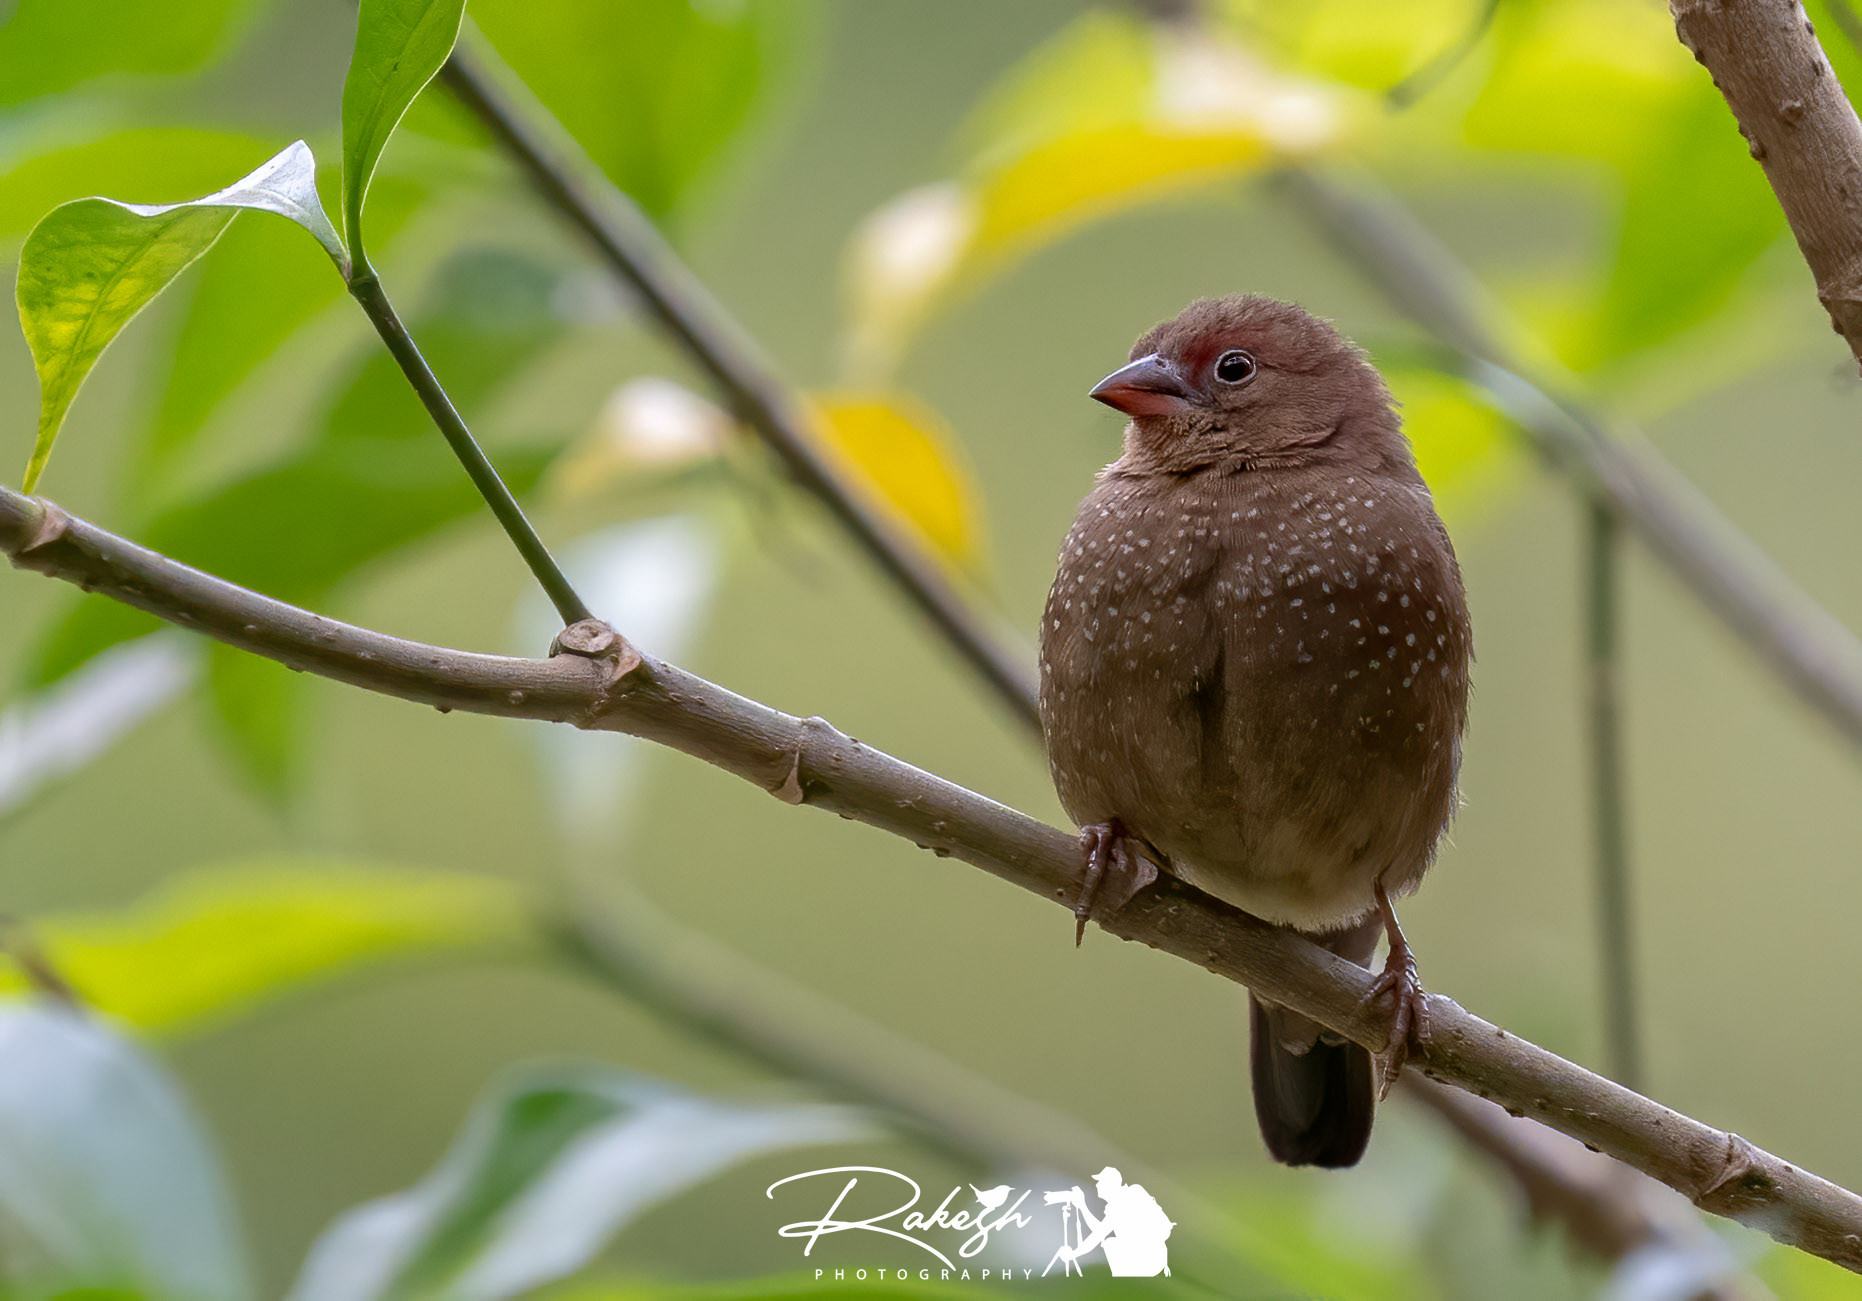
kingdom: Animalia
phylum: Chordata
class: Aves
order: Passeriformes
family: Estrildidae
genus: Lagonosticta
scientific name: Lagonosticta senegala
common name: Red-billed firefinch
